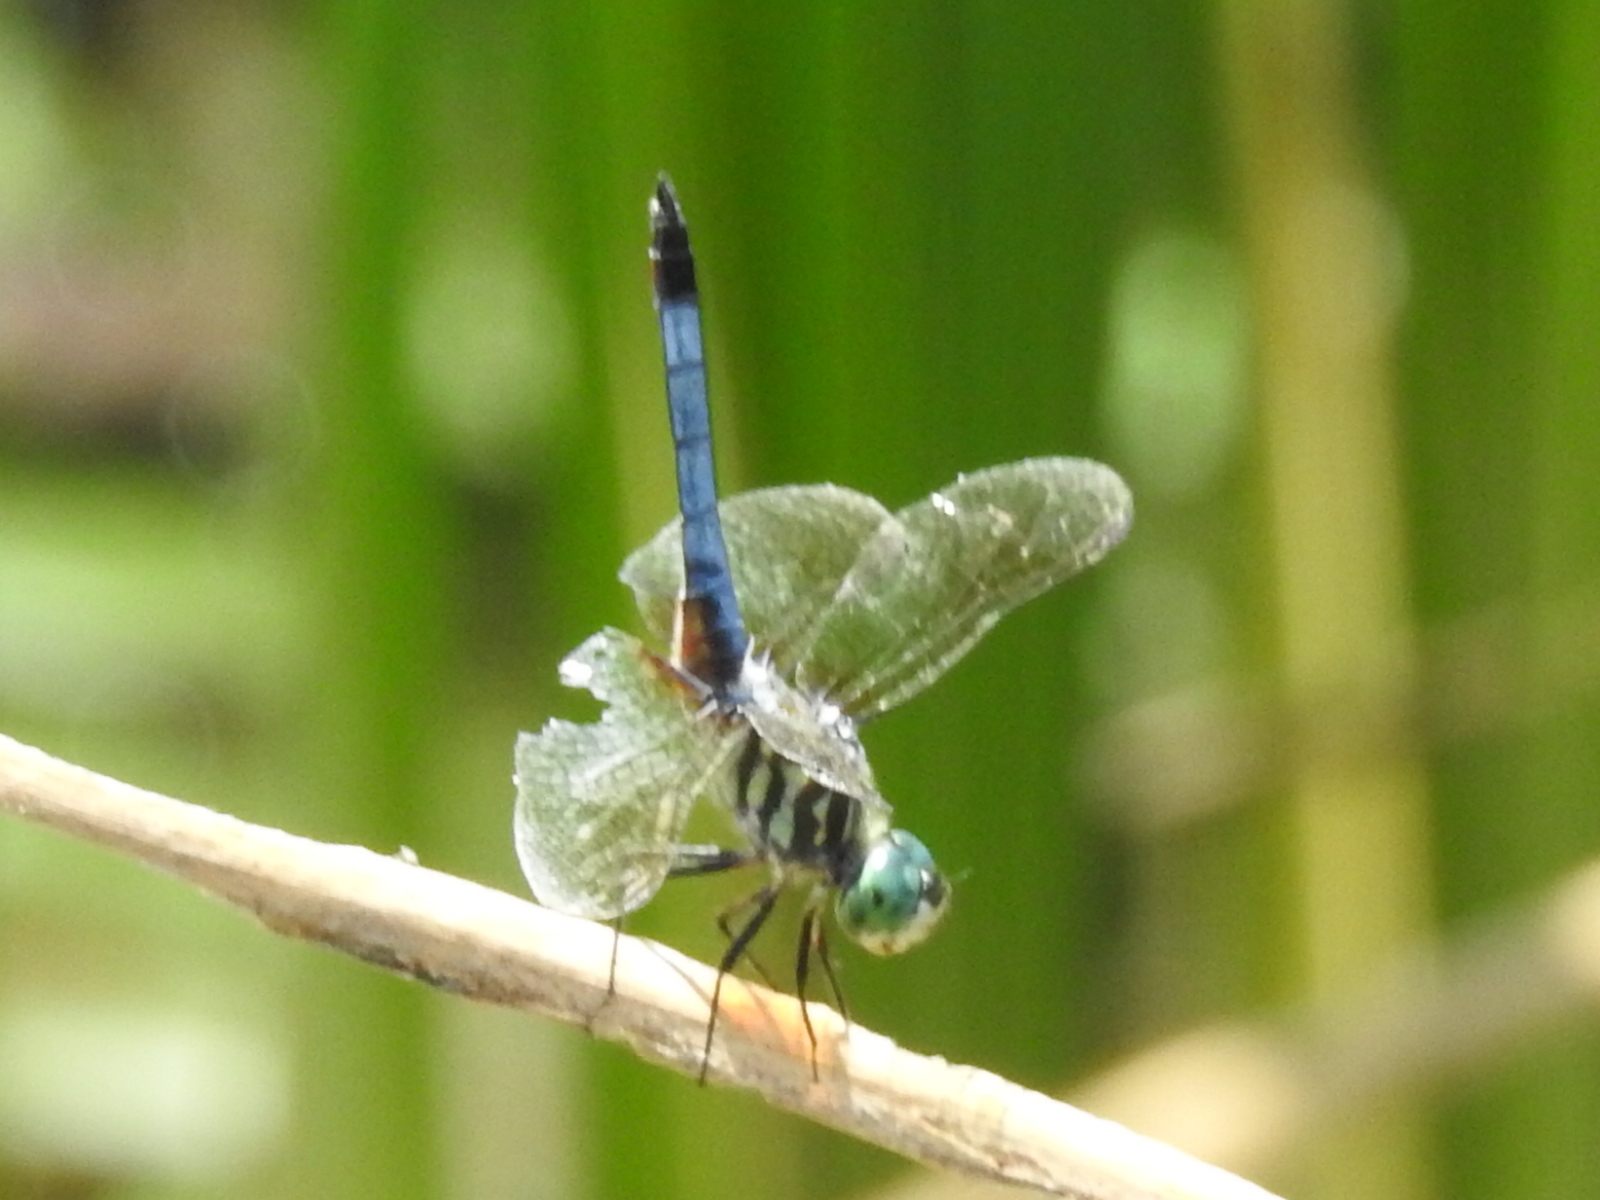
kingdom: Animalia
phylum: Arthropoda
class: Insecta
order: Odonata
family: Libellulidae
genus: Pachydiplax
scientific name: Pachydiplax longipennis
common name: Blue dasher
